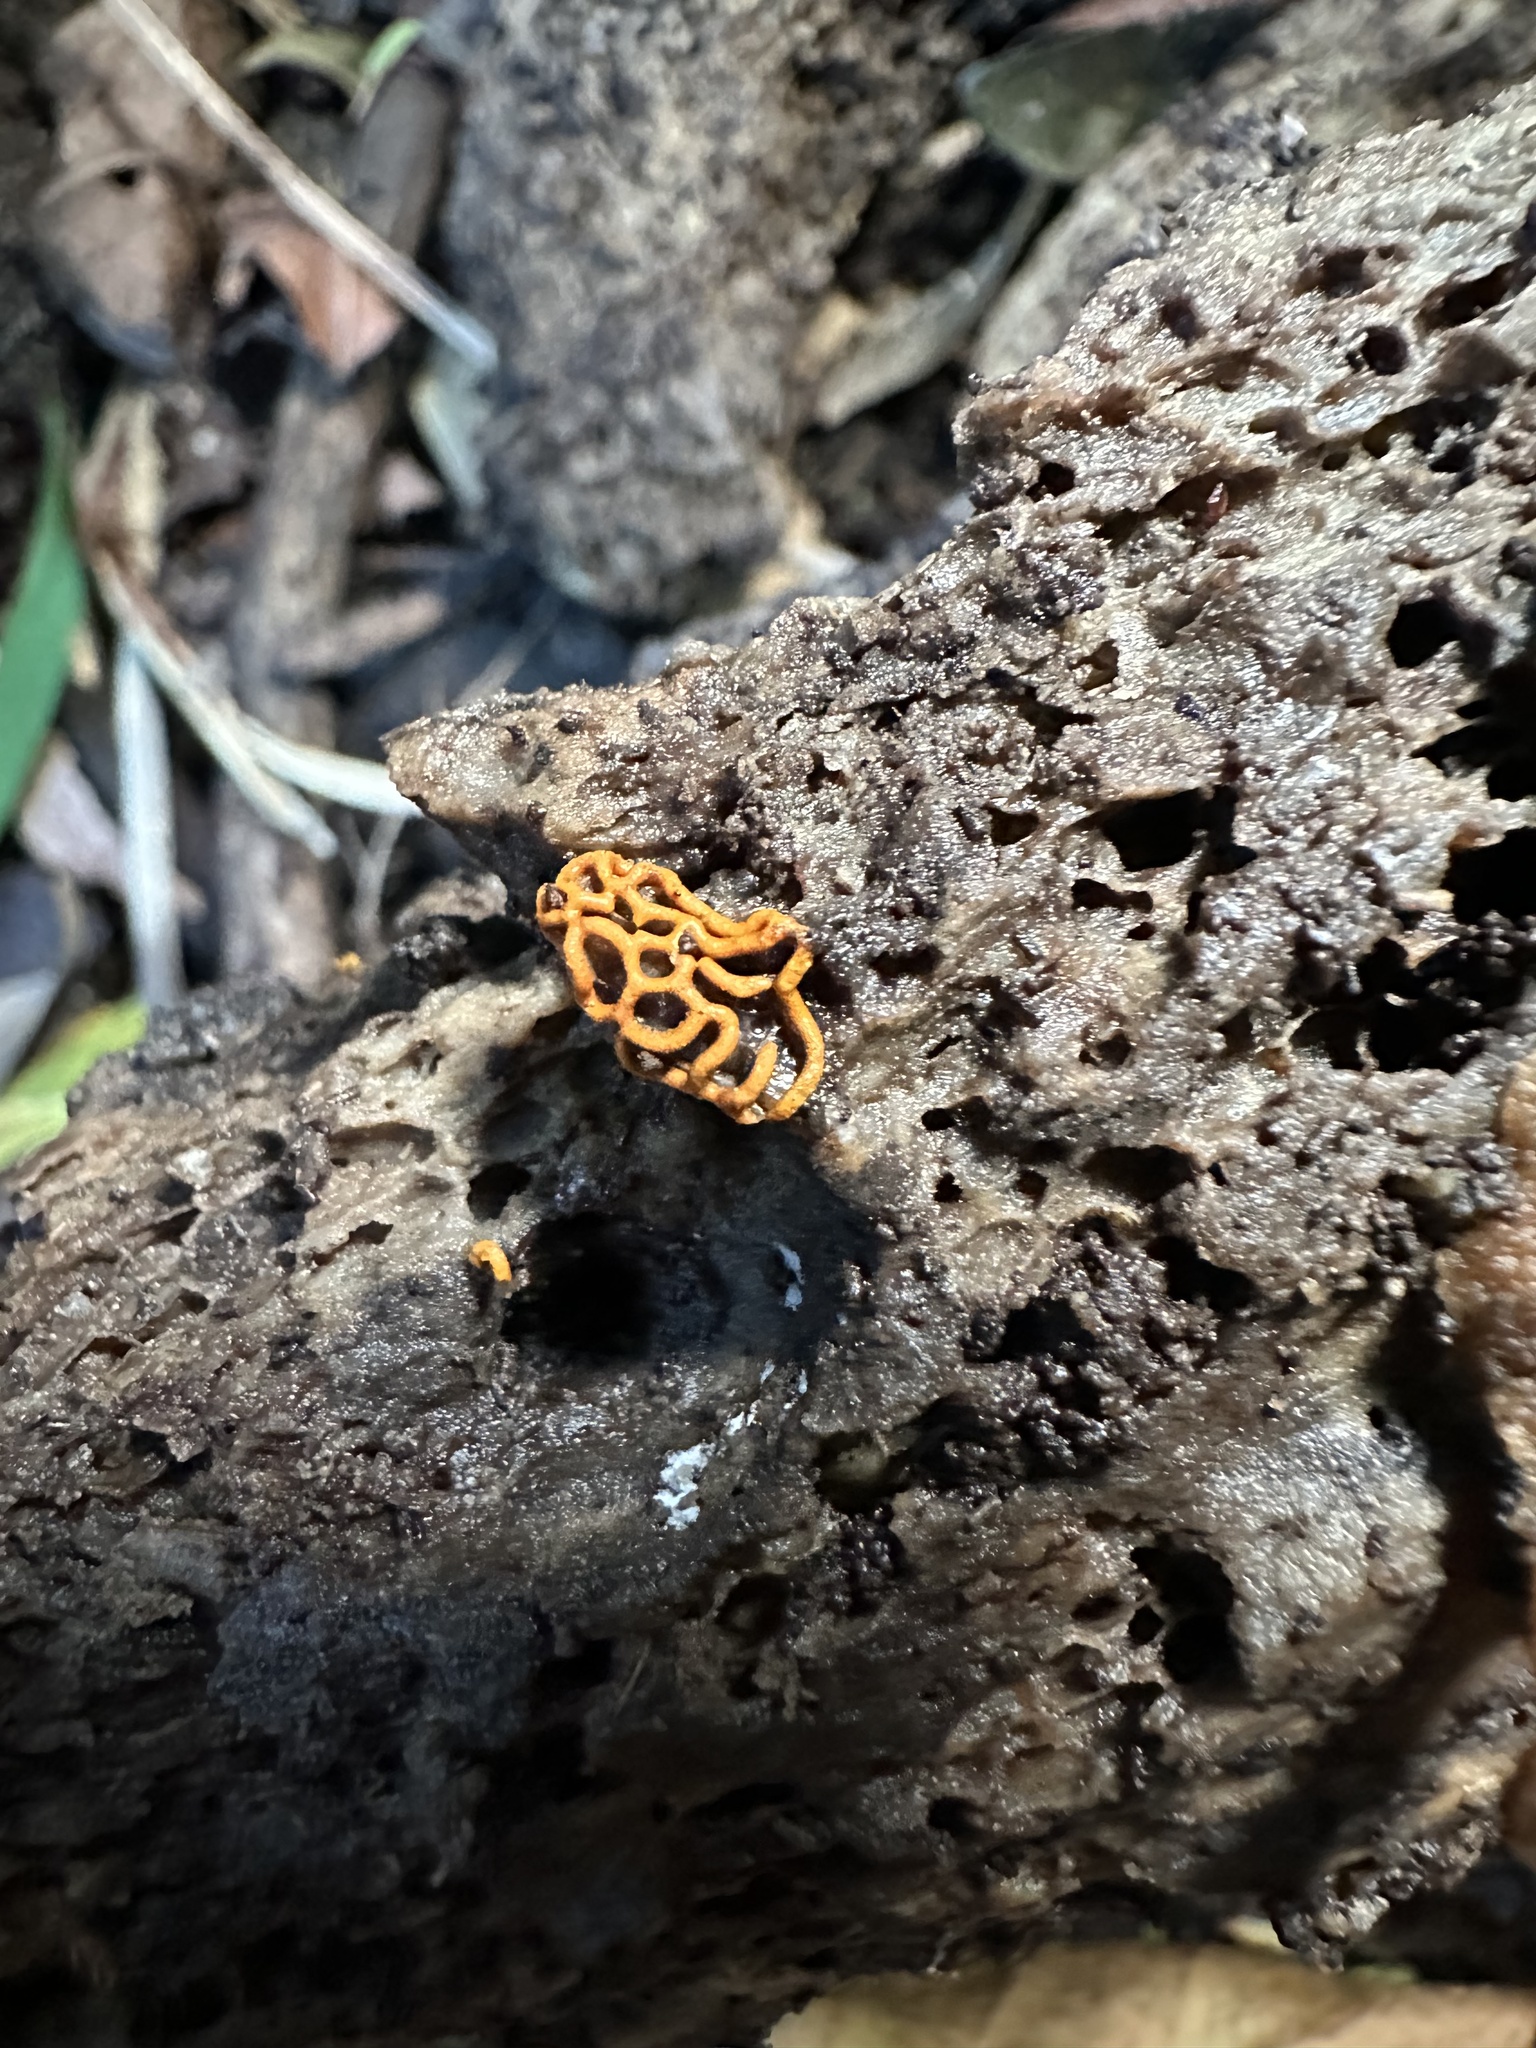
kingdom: Protozoa
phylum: Mycetozoa
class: Myxomycetes
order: Trichiales
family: Arcyriaceae
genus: Hemitrichia
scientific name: Hemitrichia serpula
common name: Pretzel slime mold
